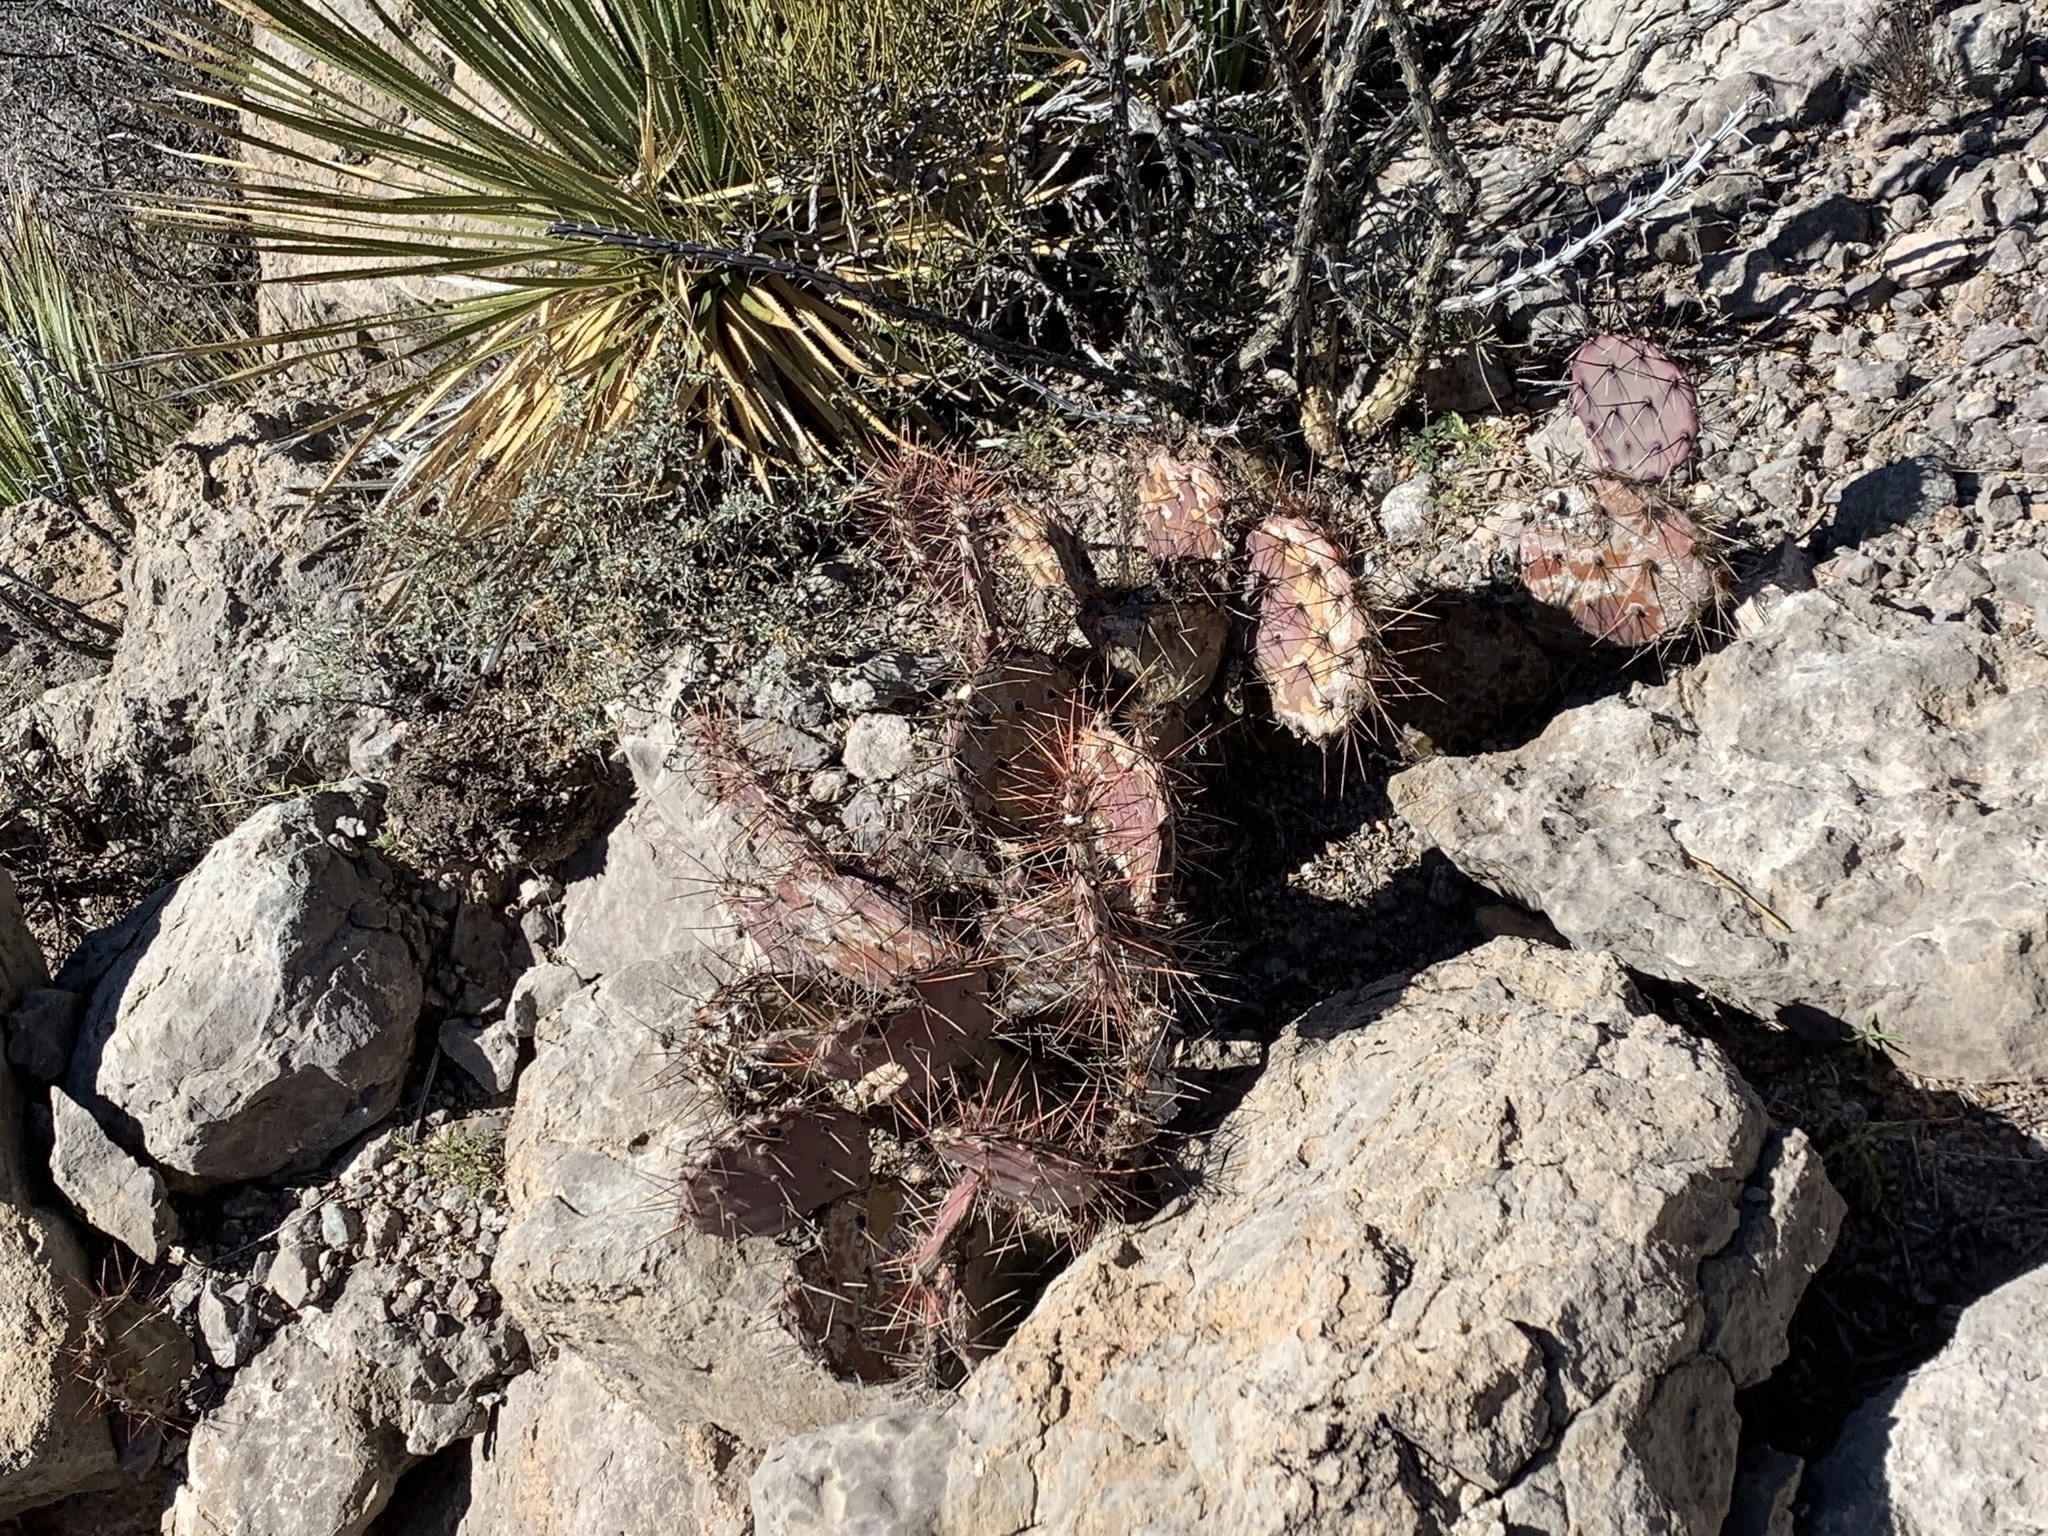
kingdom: Plantae
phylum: Tracheophyta
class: Magnoliopsida
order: Caryophyllales
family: Cactaceae
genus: Opuntia
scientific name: Opuntia macrocentra
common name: Purple prickly-pear
